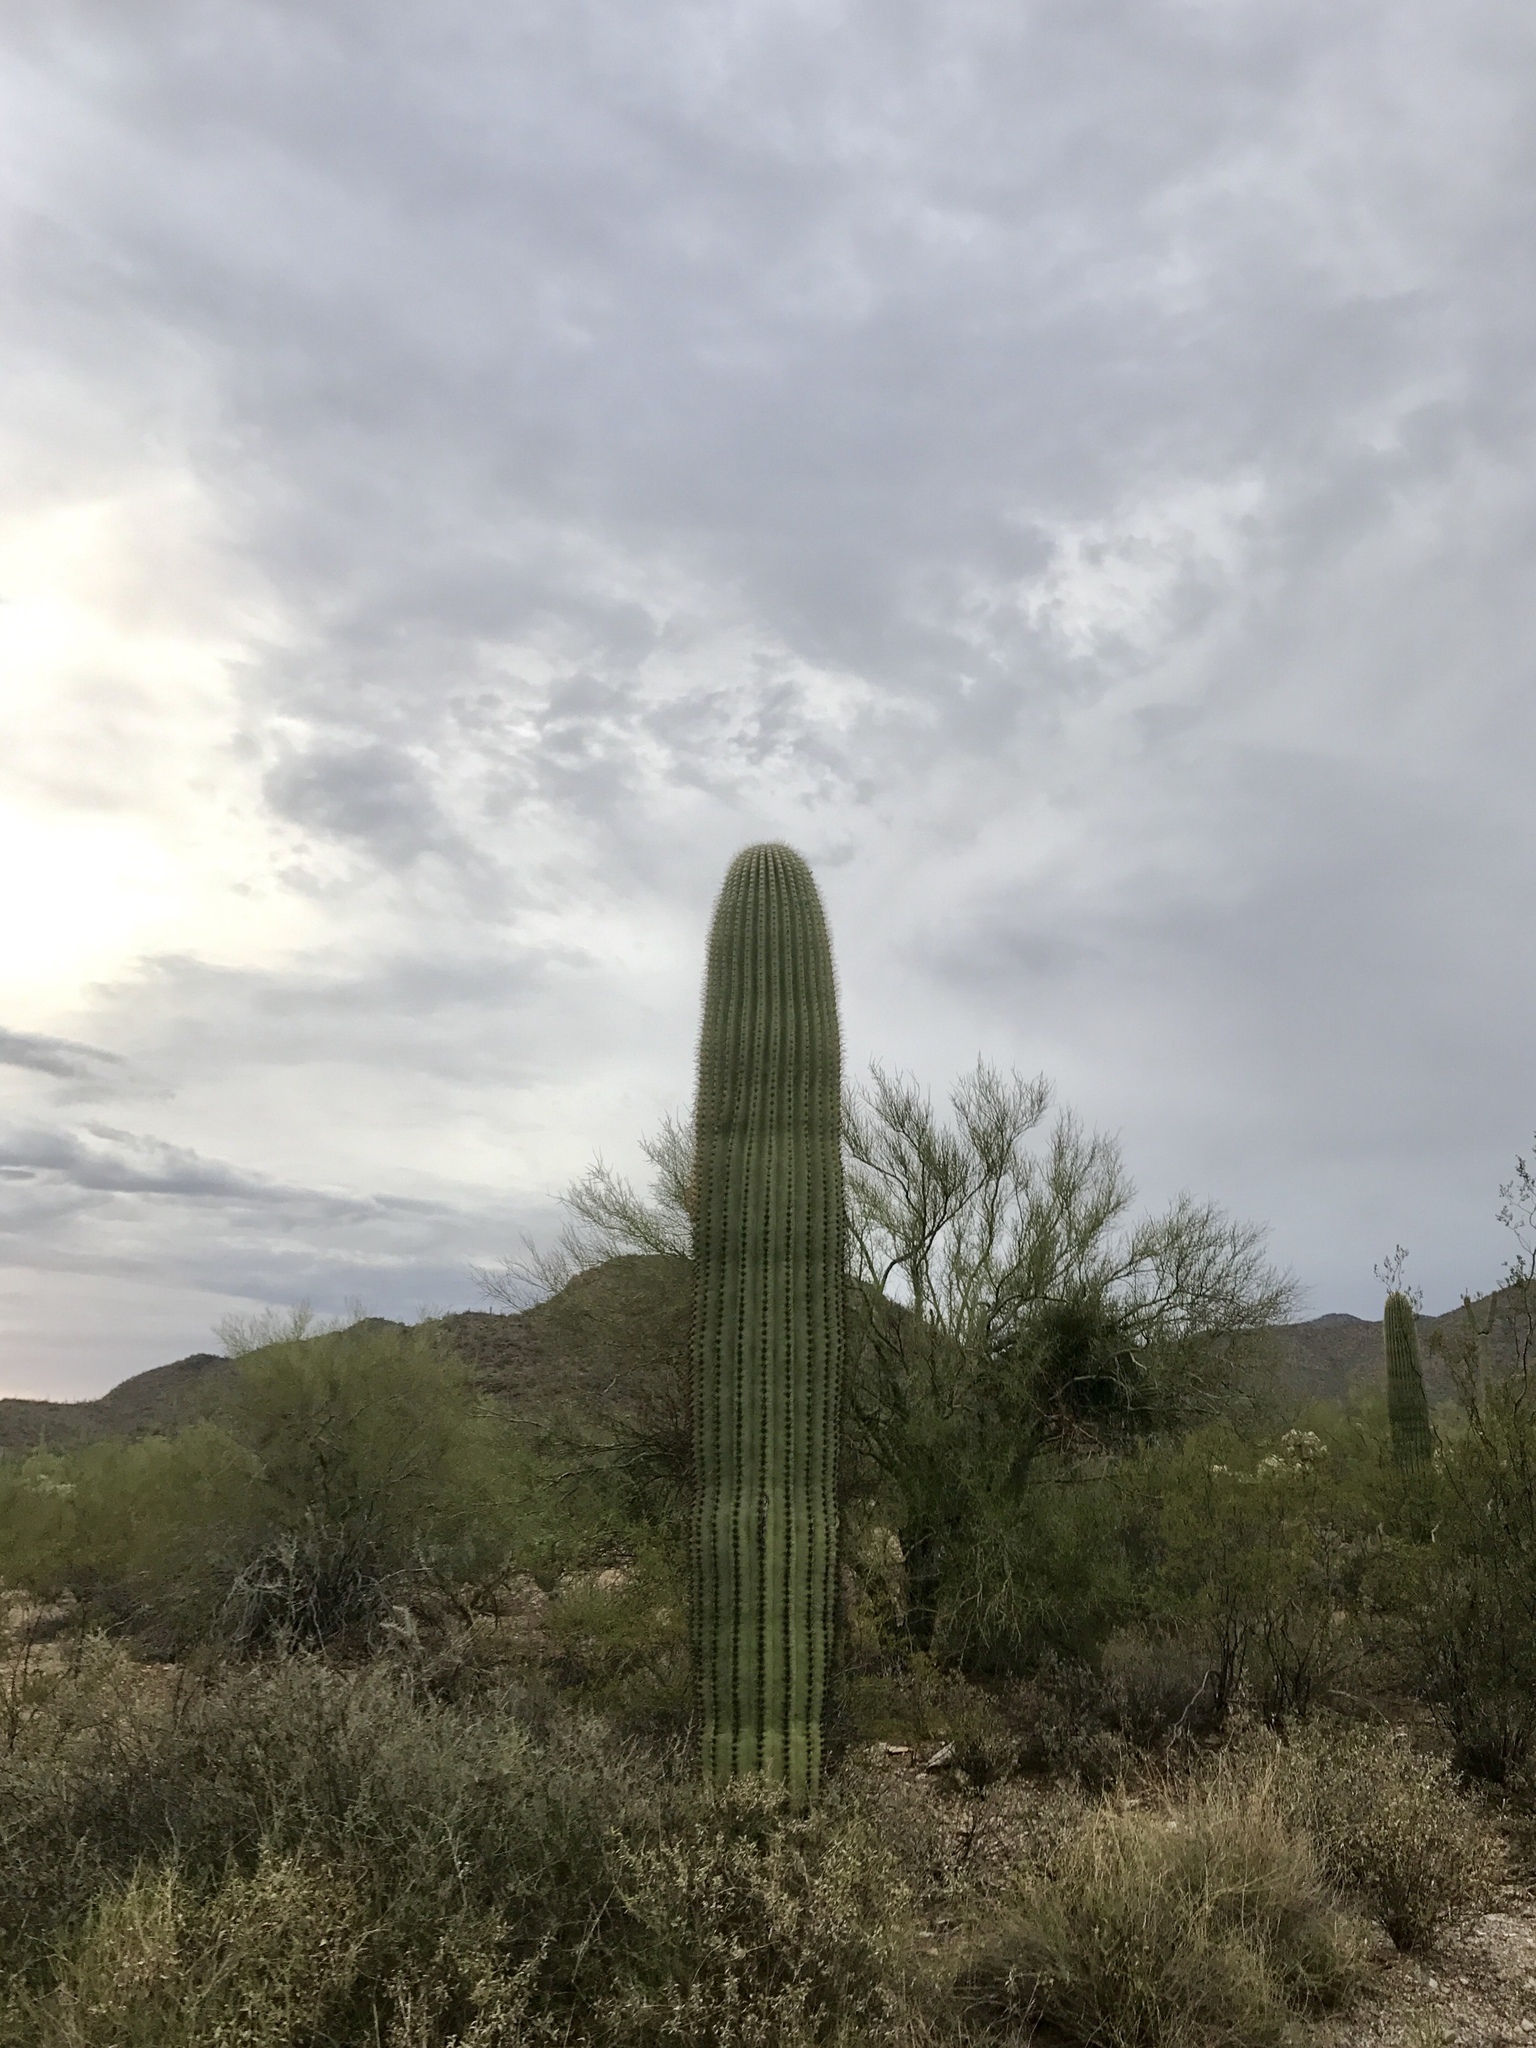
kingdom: Plantae
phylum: Tracheophyta
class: Magnoliopsida
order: Caryophyllales
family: Cactaceae
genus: Carnegiea
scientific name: Carnegiea gigantea
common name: Saguaro
